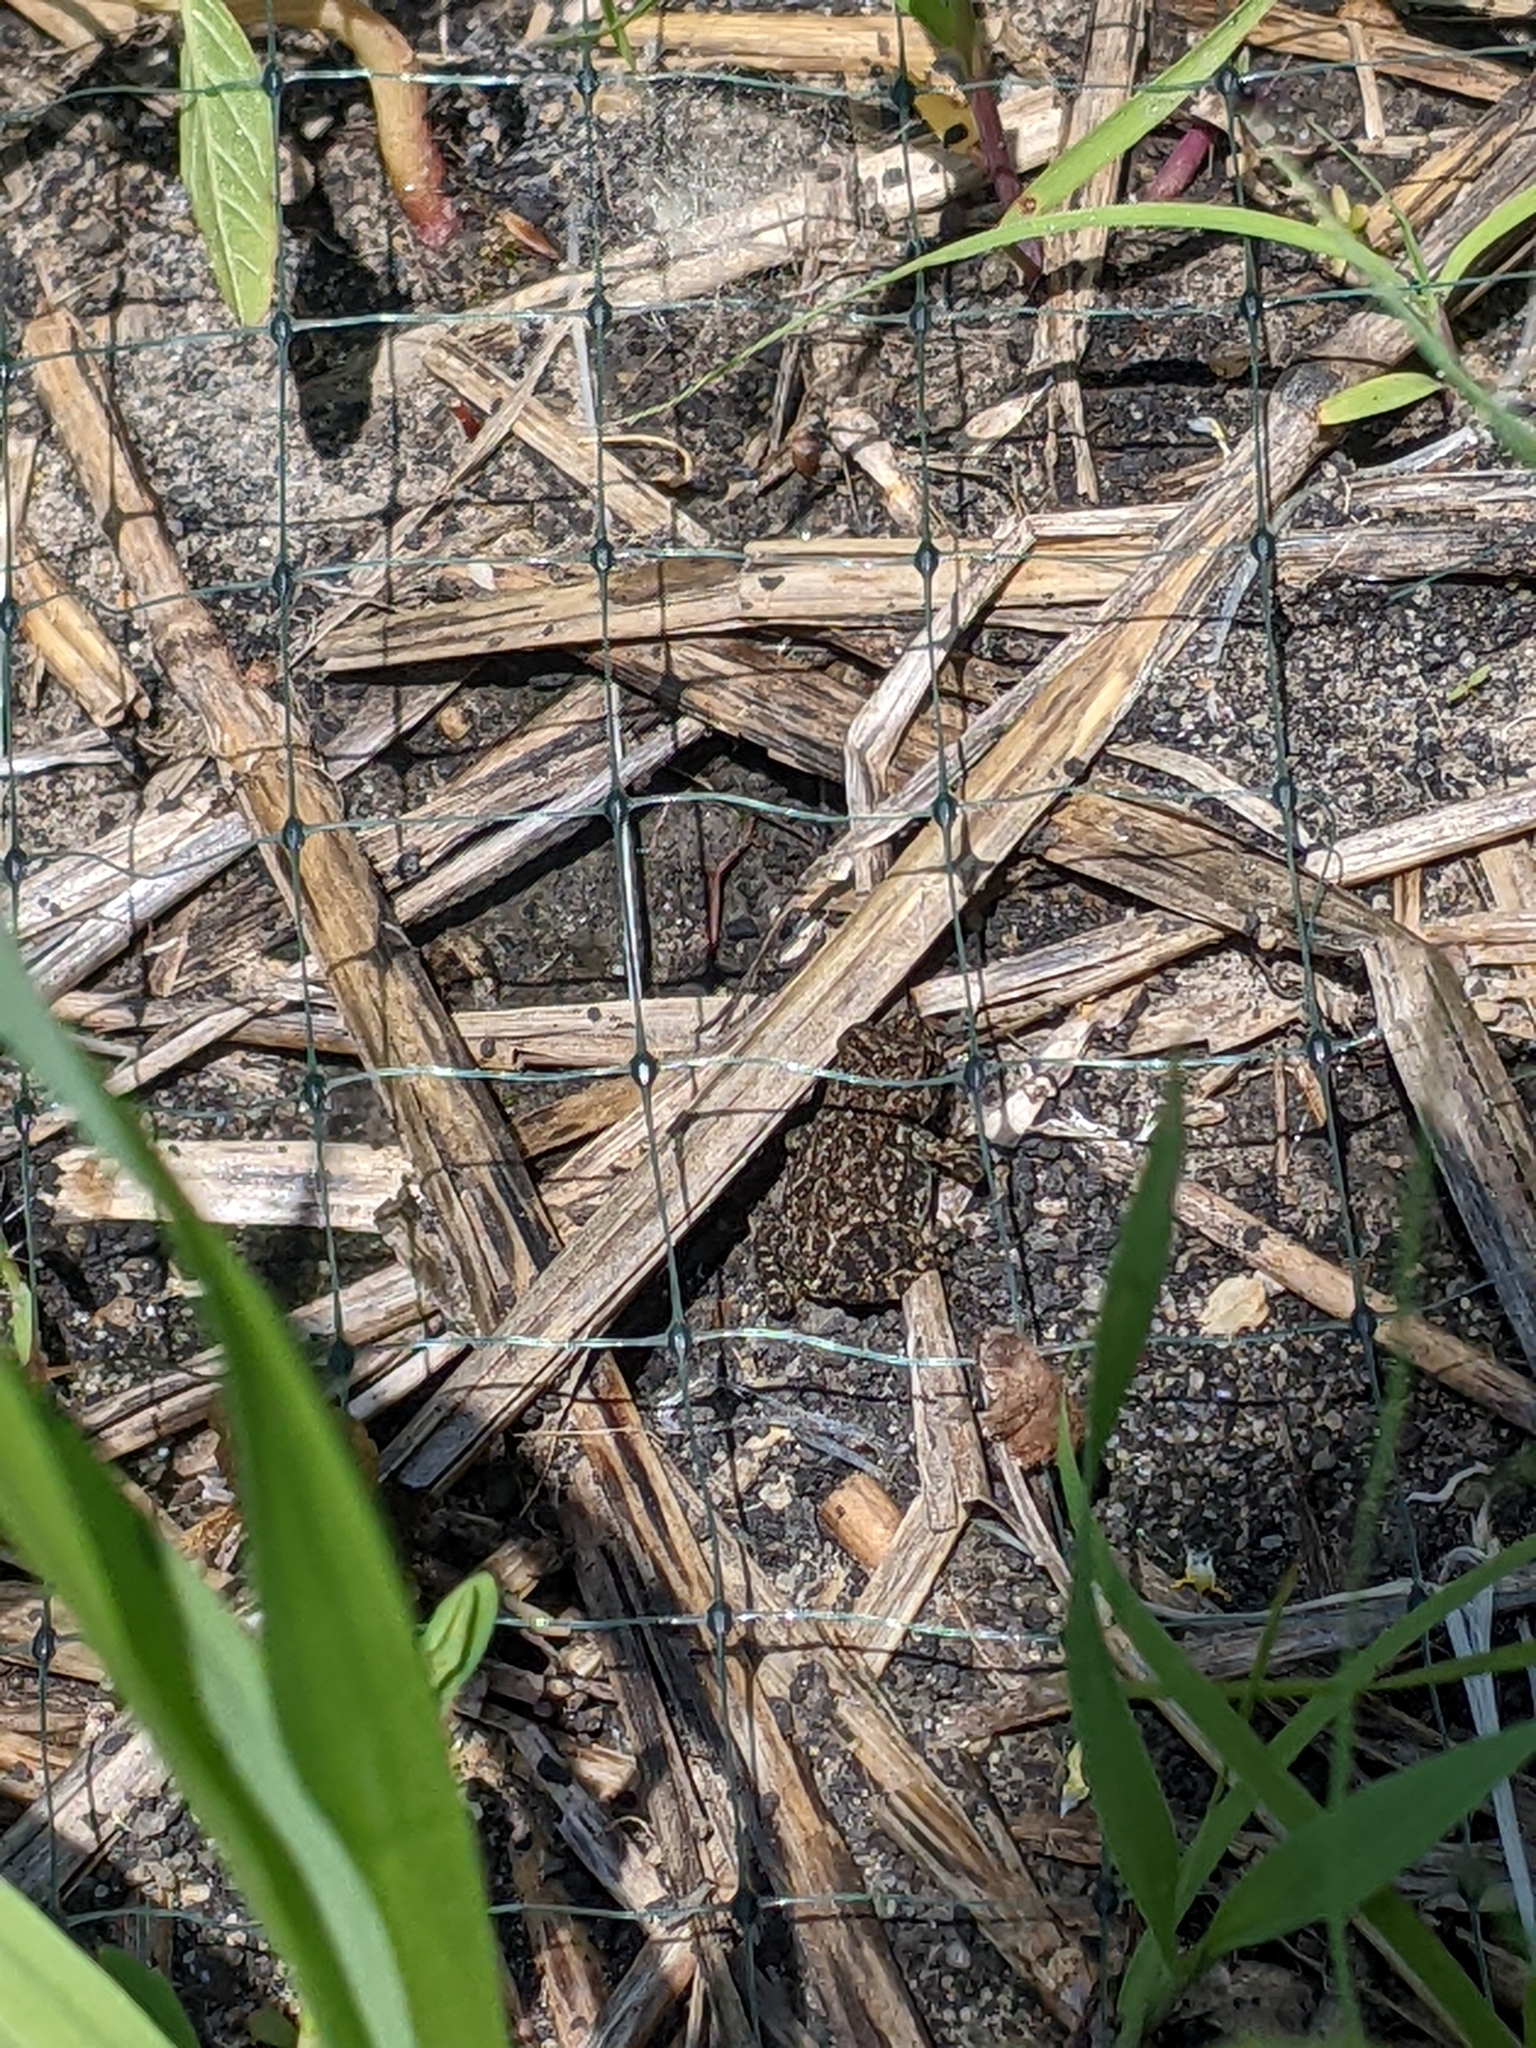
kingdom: Animalia
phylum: Chordata
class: Amphibia
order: Anura
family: Bufonidae
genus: Anaxyrus
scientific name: Anaxyrus americanus
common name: American toad
